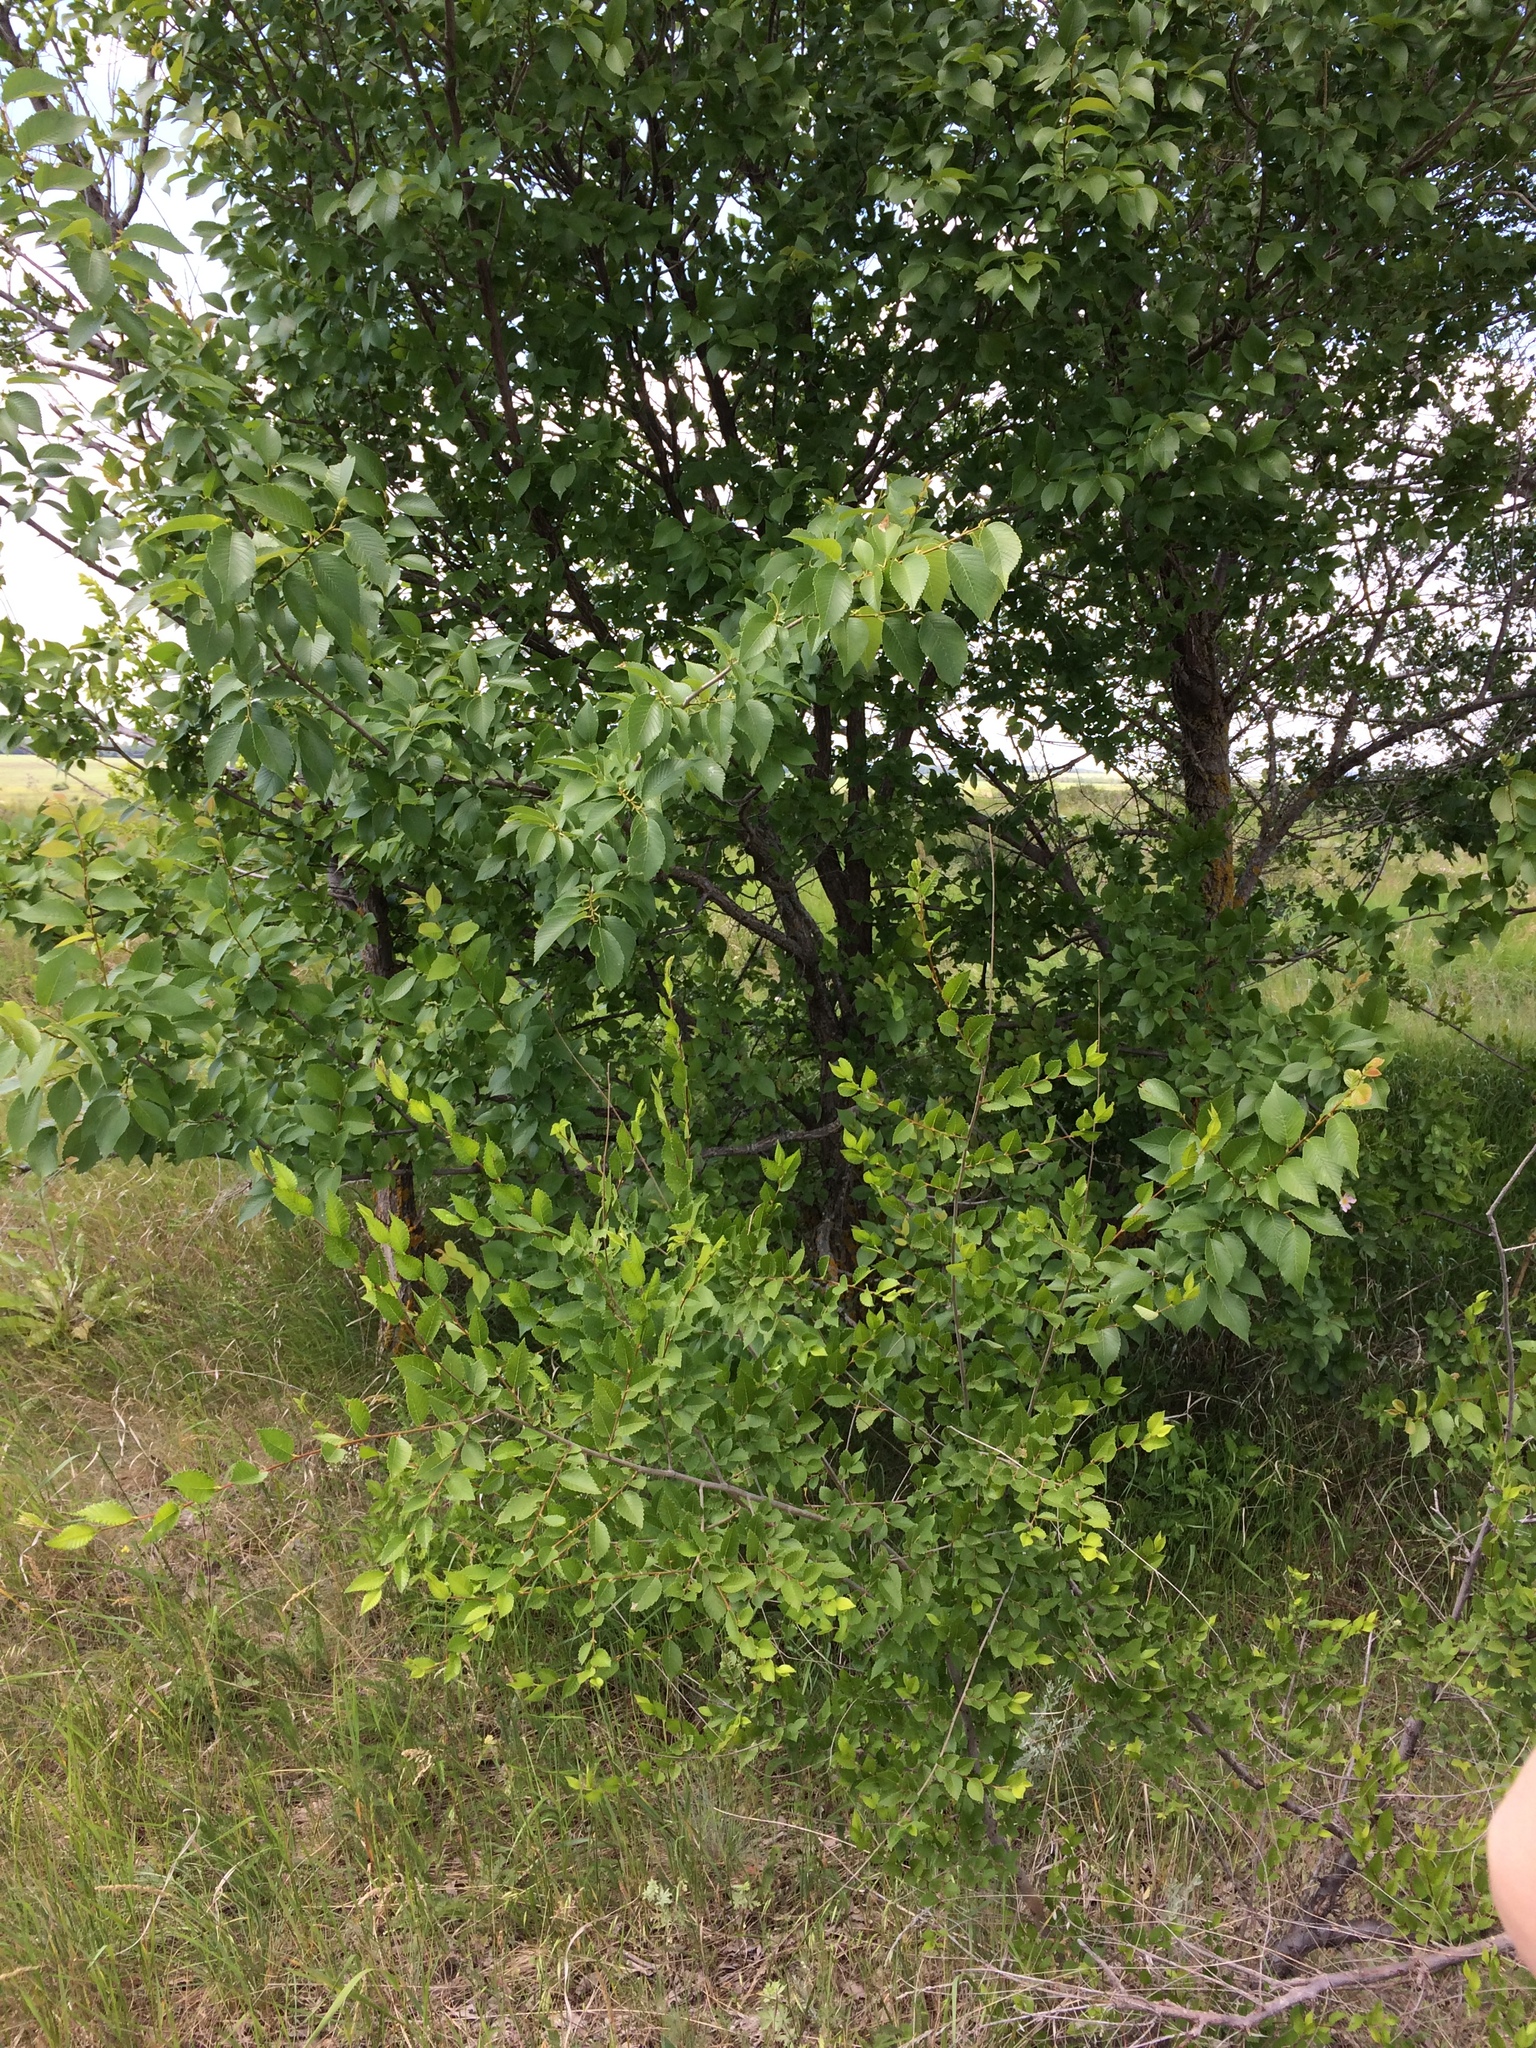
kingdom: Plantae
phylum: Tracheophyta
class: Magnoliopsida
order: Rosales
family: Rosaceae
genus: Pyrus
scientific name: Pyrus communis
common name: Pear
